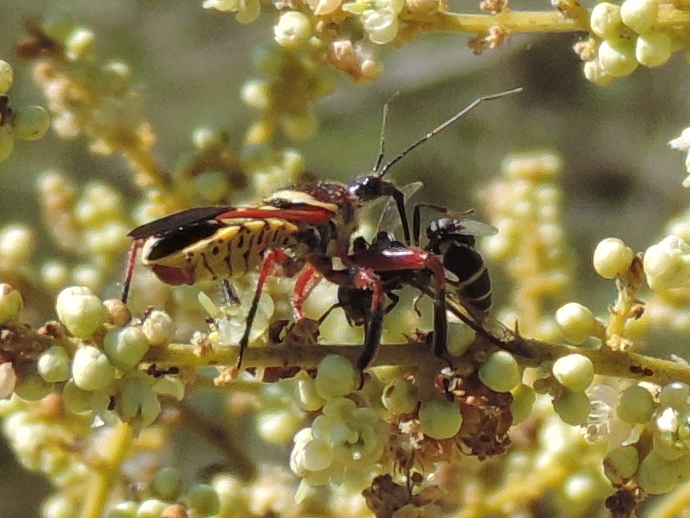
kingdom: Animalia
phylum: Arthropoda
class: Insecta
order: Hemiptera
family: Reduviidae
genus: Apiomerus
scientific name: Apiomerus flaviventris
